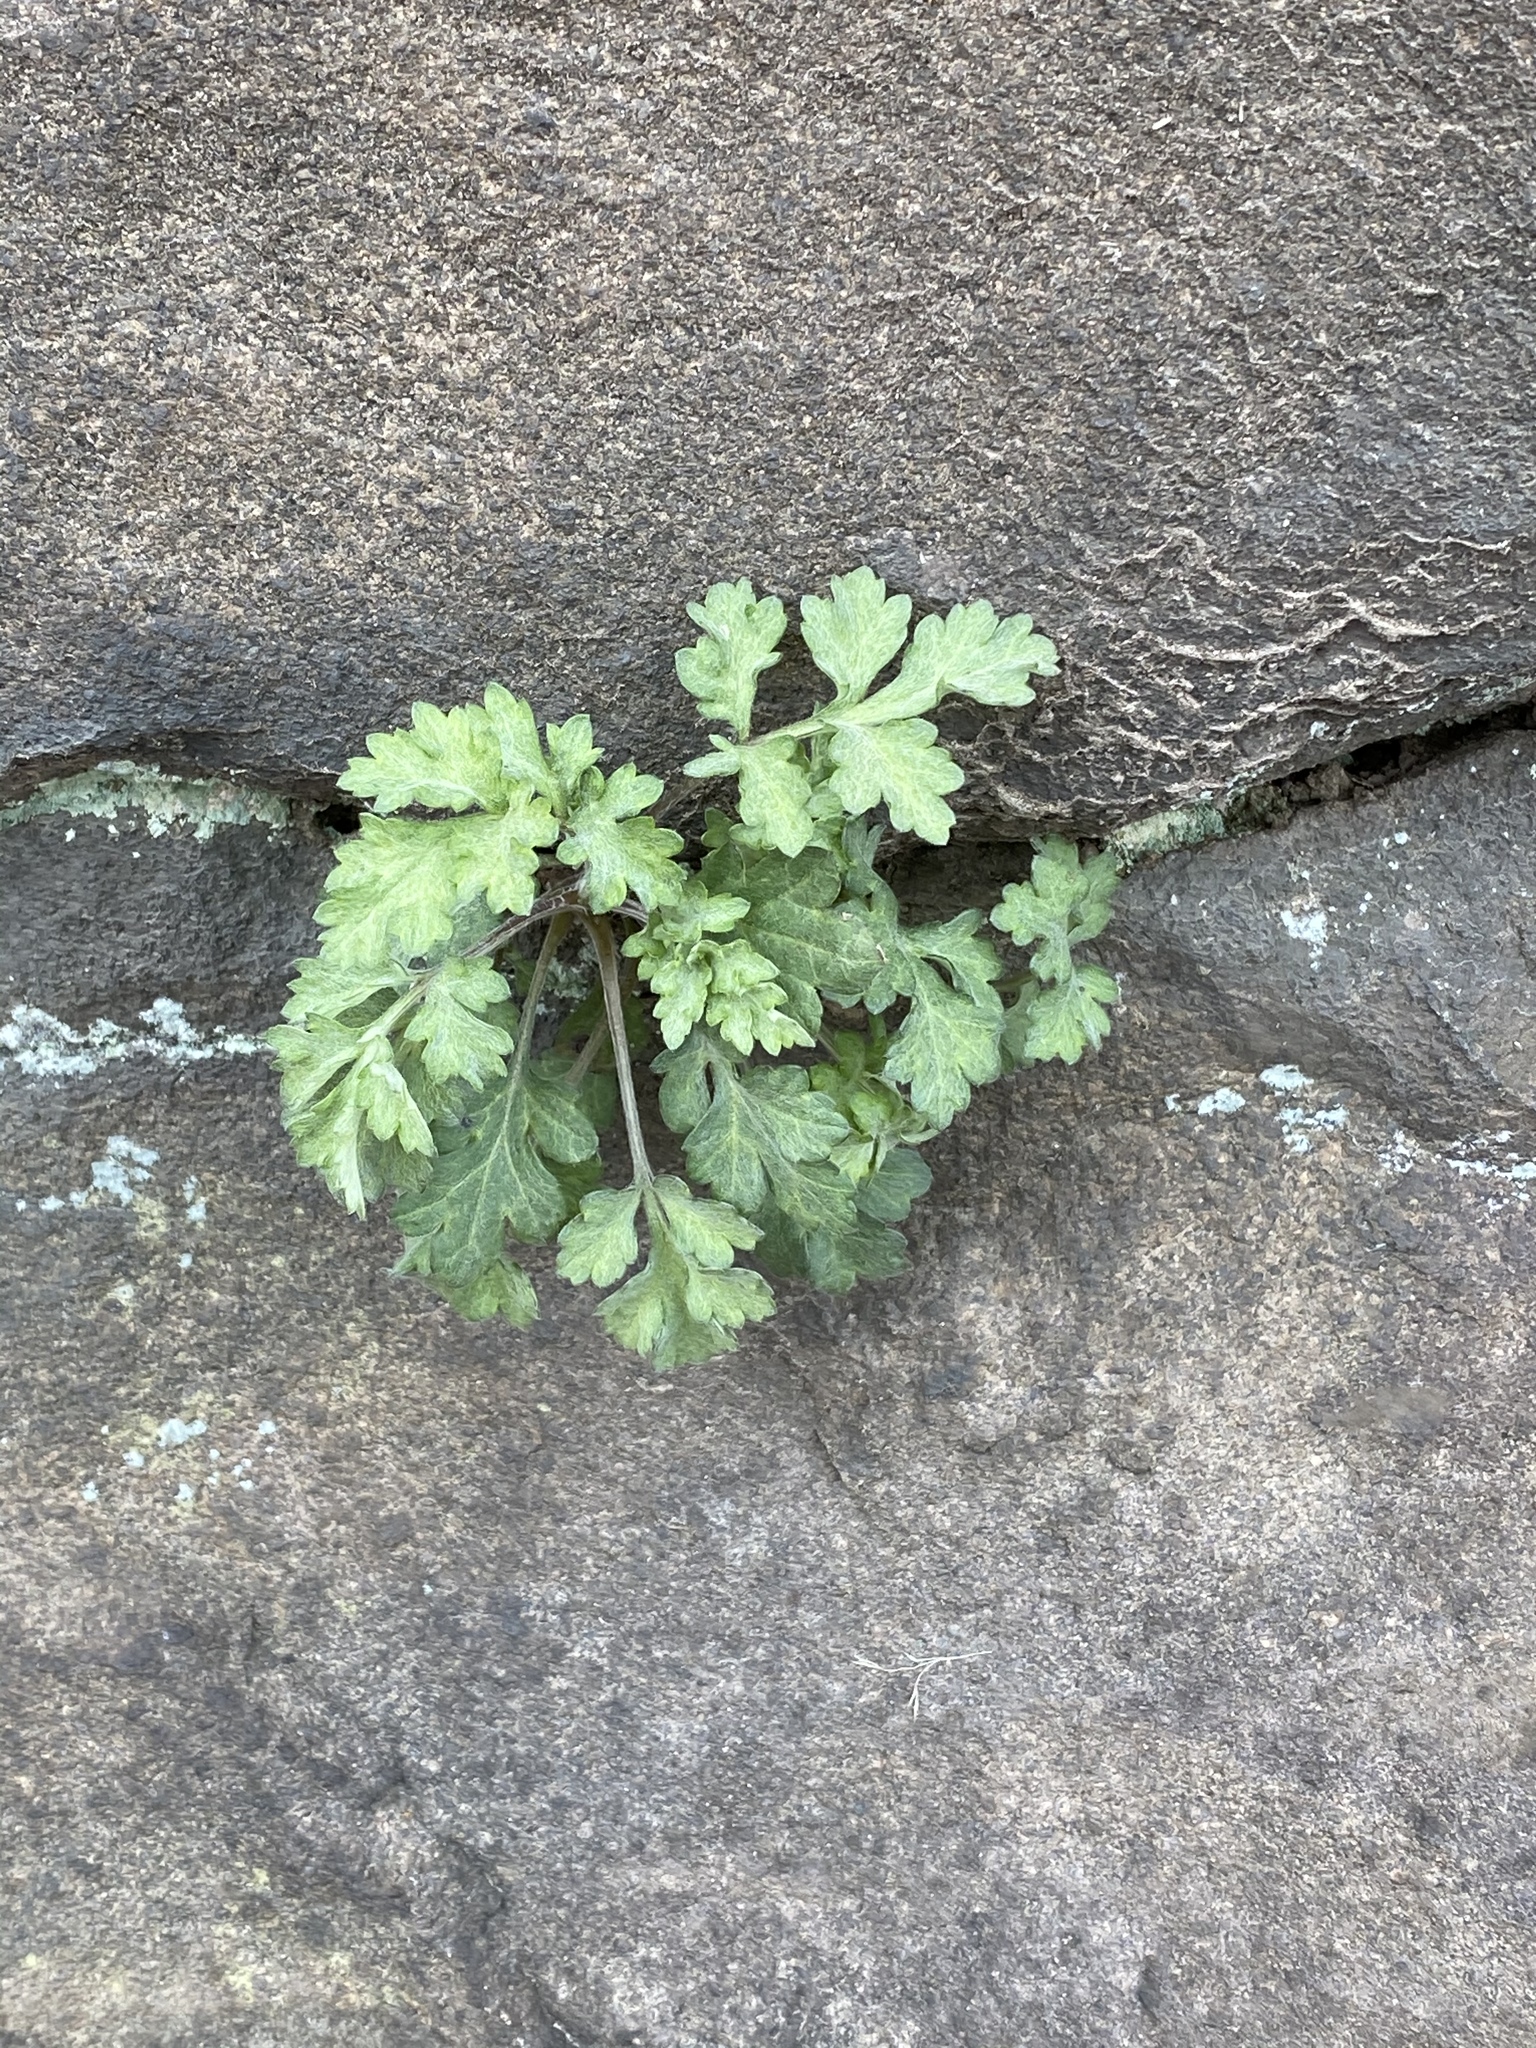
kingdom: Plantae
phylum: Tracheophyta
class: Magnoliopsida
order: Asterales
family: Asteraceae
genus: Artemisia
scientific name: Artemisia vulgaris
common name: Mugwort
